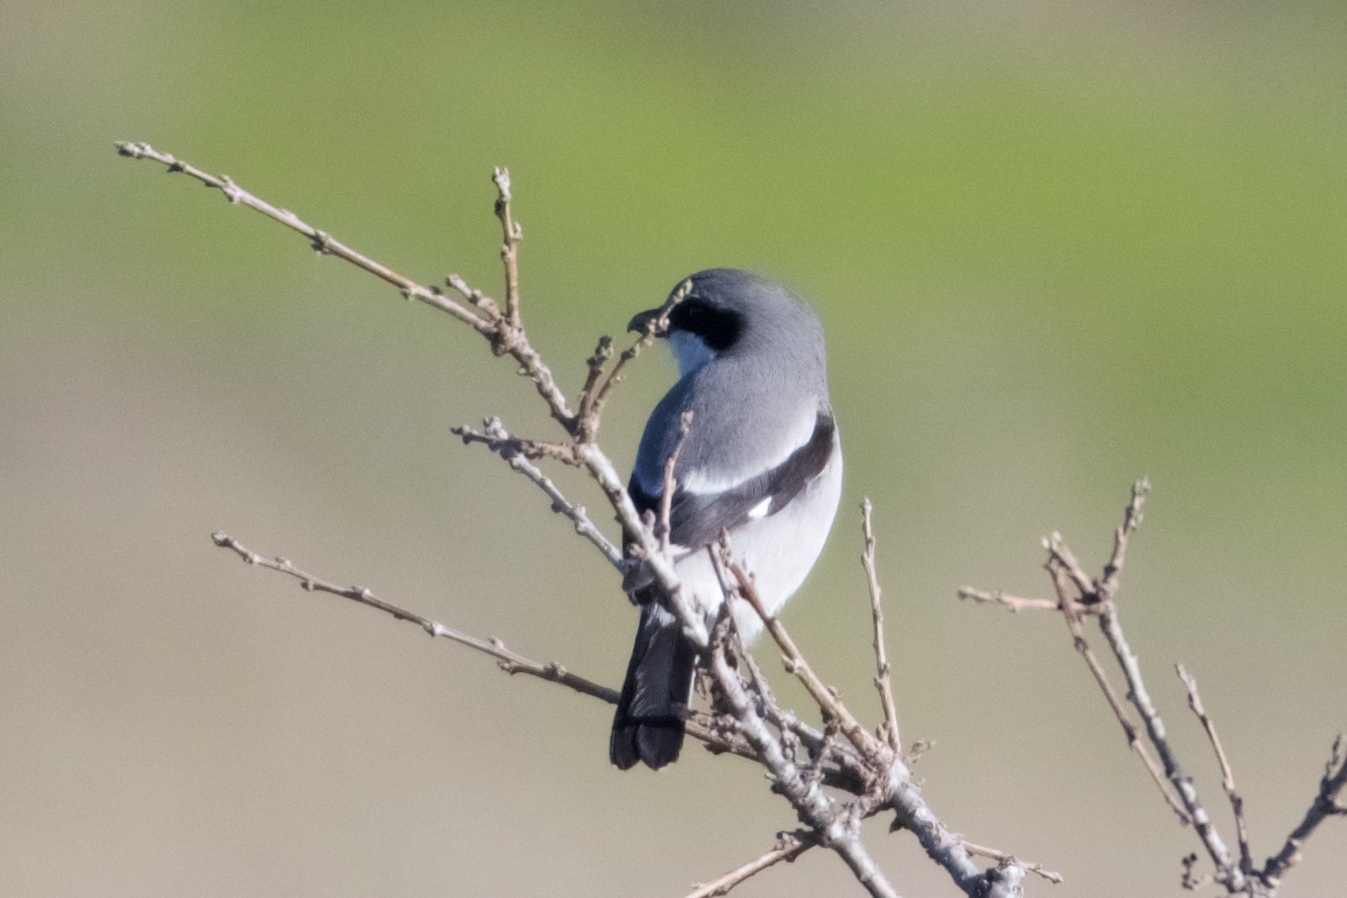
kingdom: Animalia
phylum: Chordata
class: Aves
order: Passeriformes
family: Laniidae
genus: Lanius
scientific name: Lanius ludovicianus
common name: Loggerhead shrike
